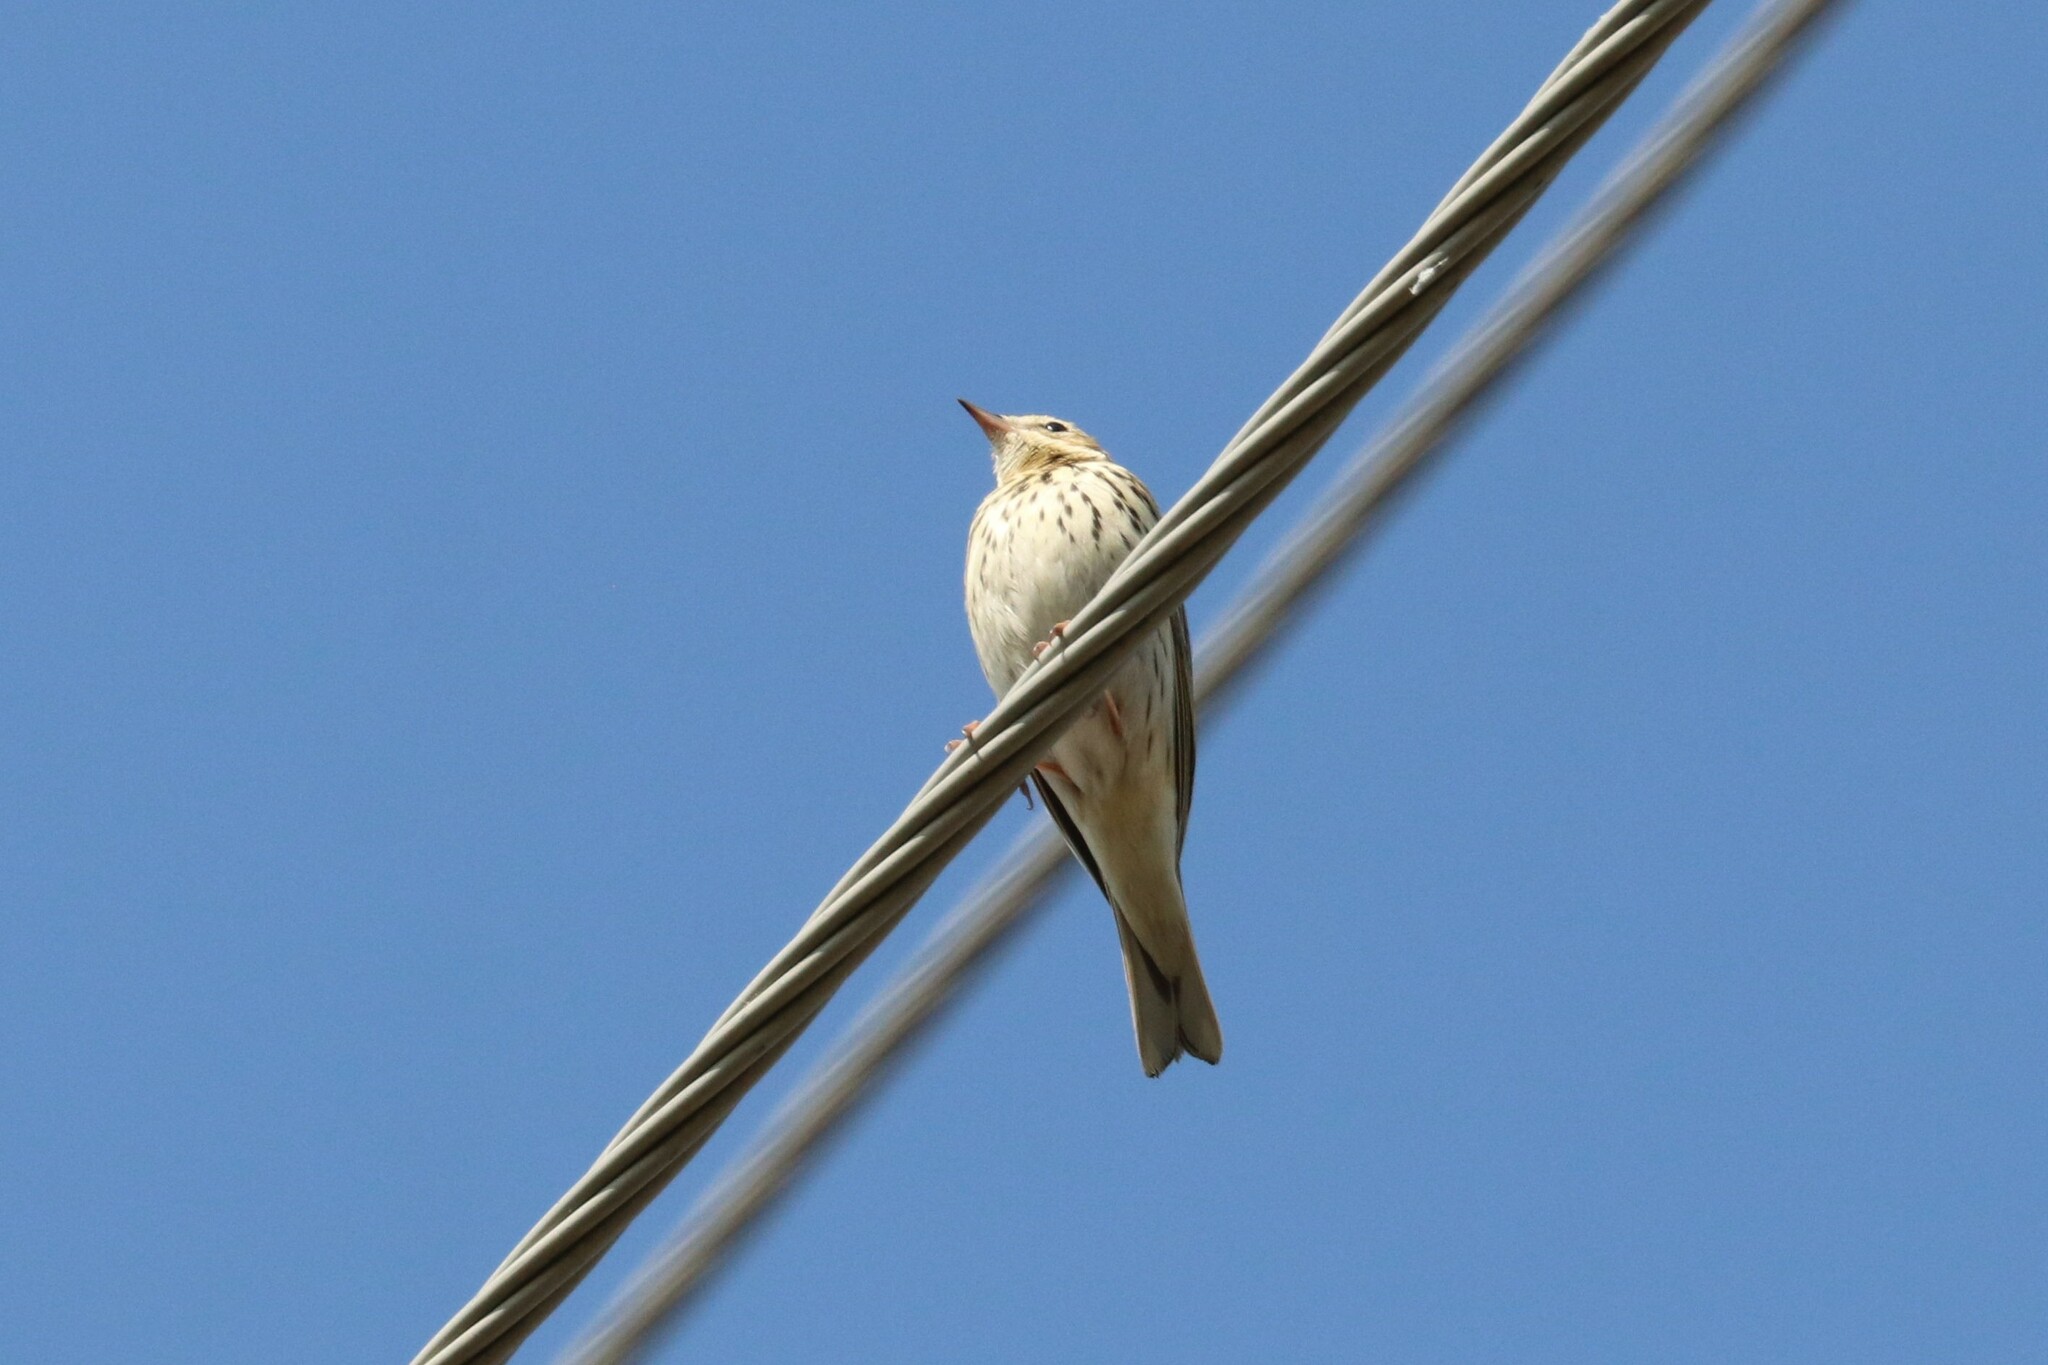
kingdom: Animalia
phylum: Chordata
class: Aves
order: Passeriformes
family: Motacillidae
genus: Anthus
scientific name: Anthus trivialis
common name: Tree pipit
